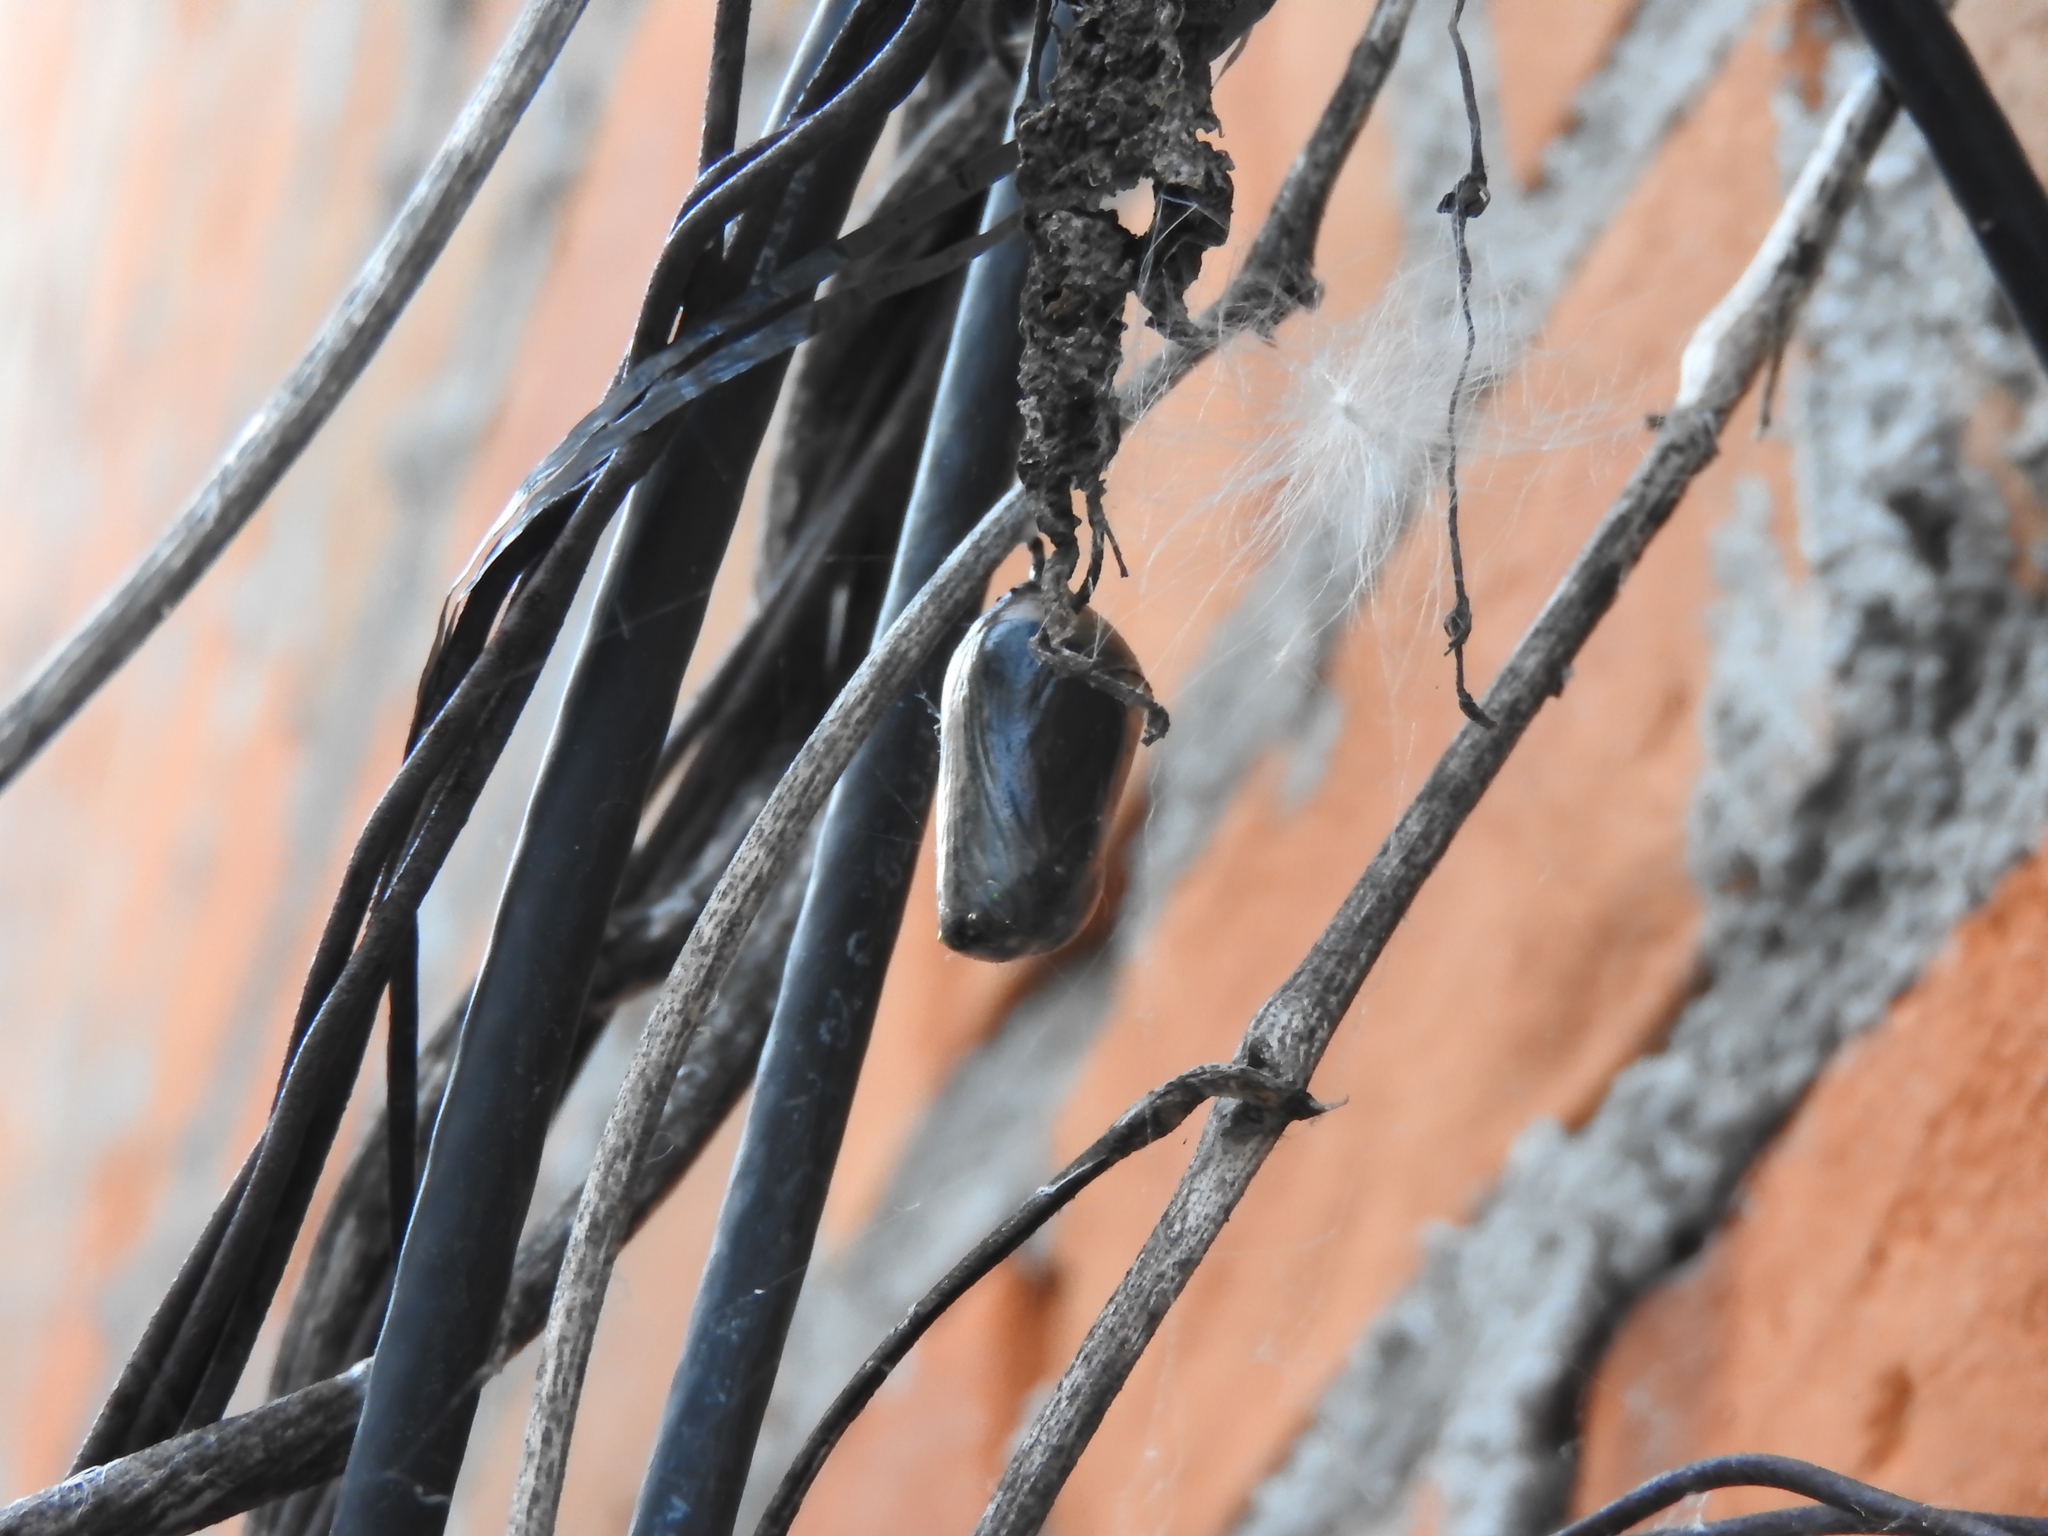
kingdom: Animalia
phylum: Arthropoda
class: Insecta
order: Lepidoptera
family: Nymphalidae
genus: Danaus
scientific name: Danaus plexippus
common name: Monarch
